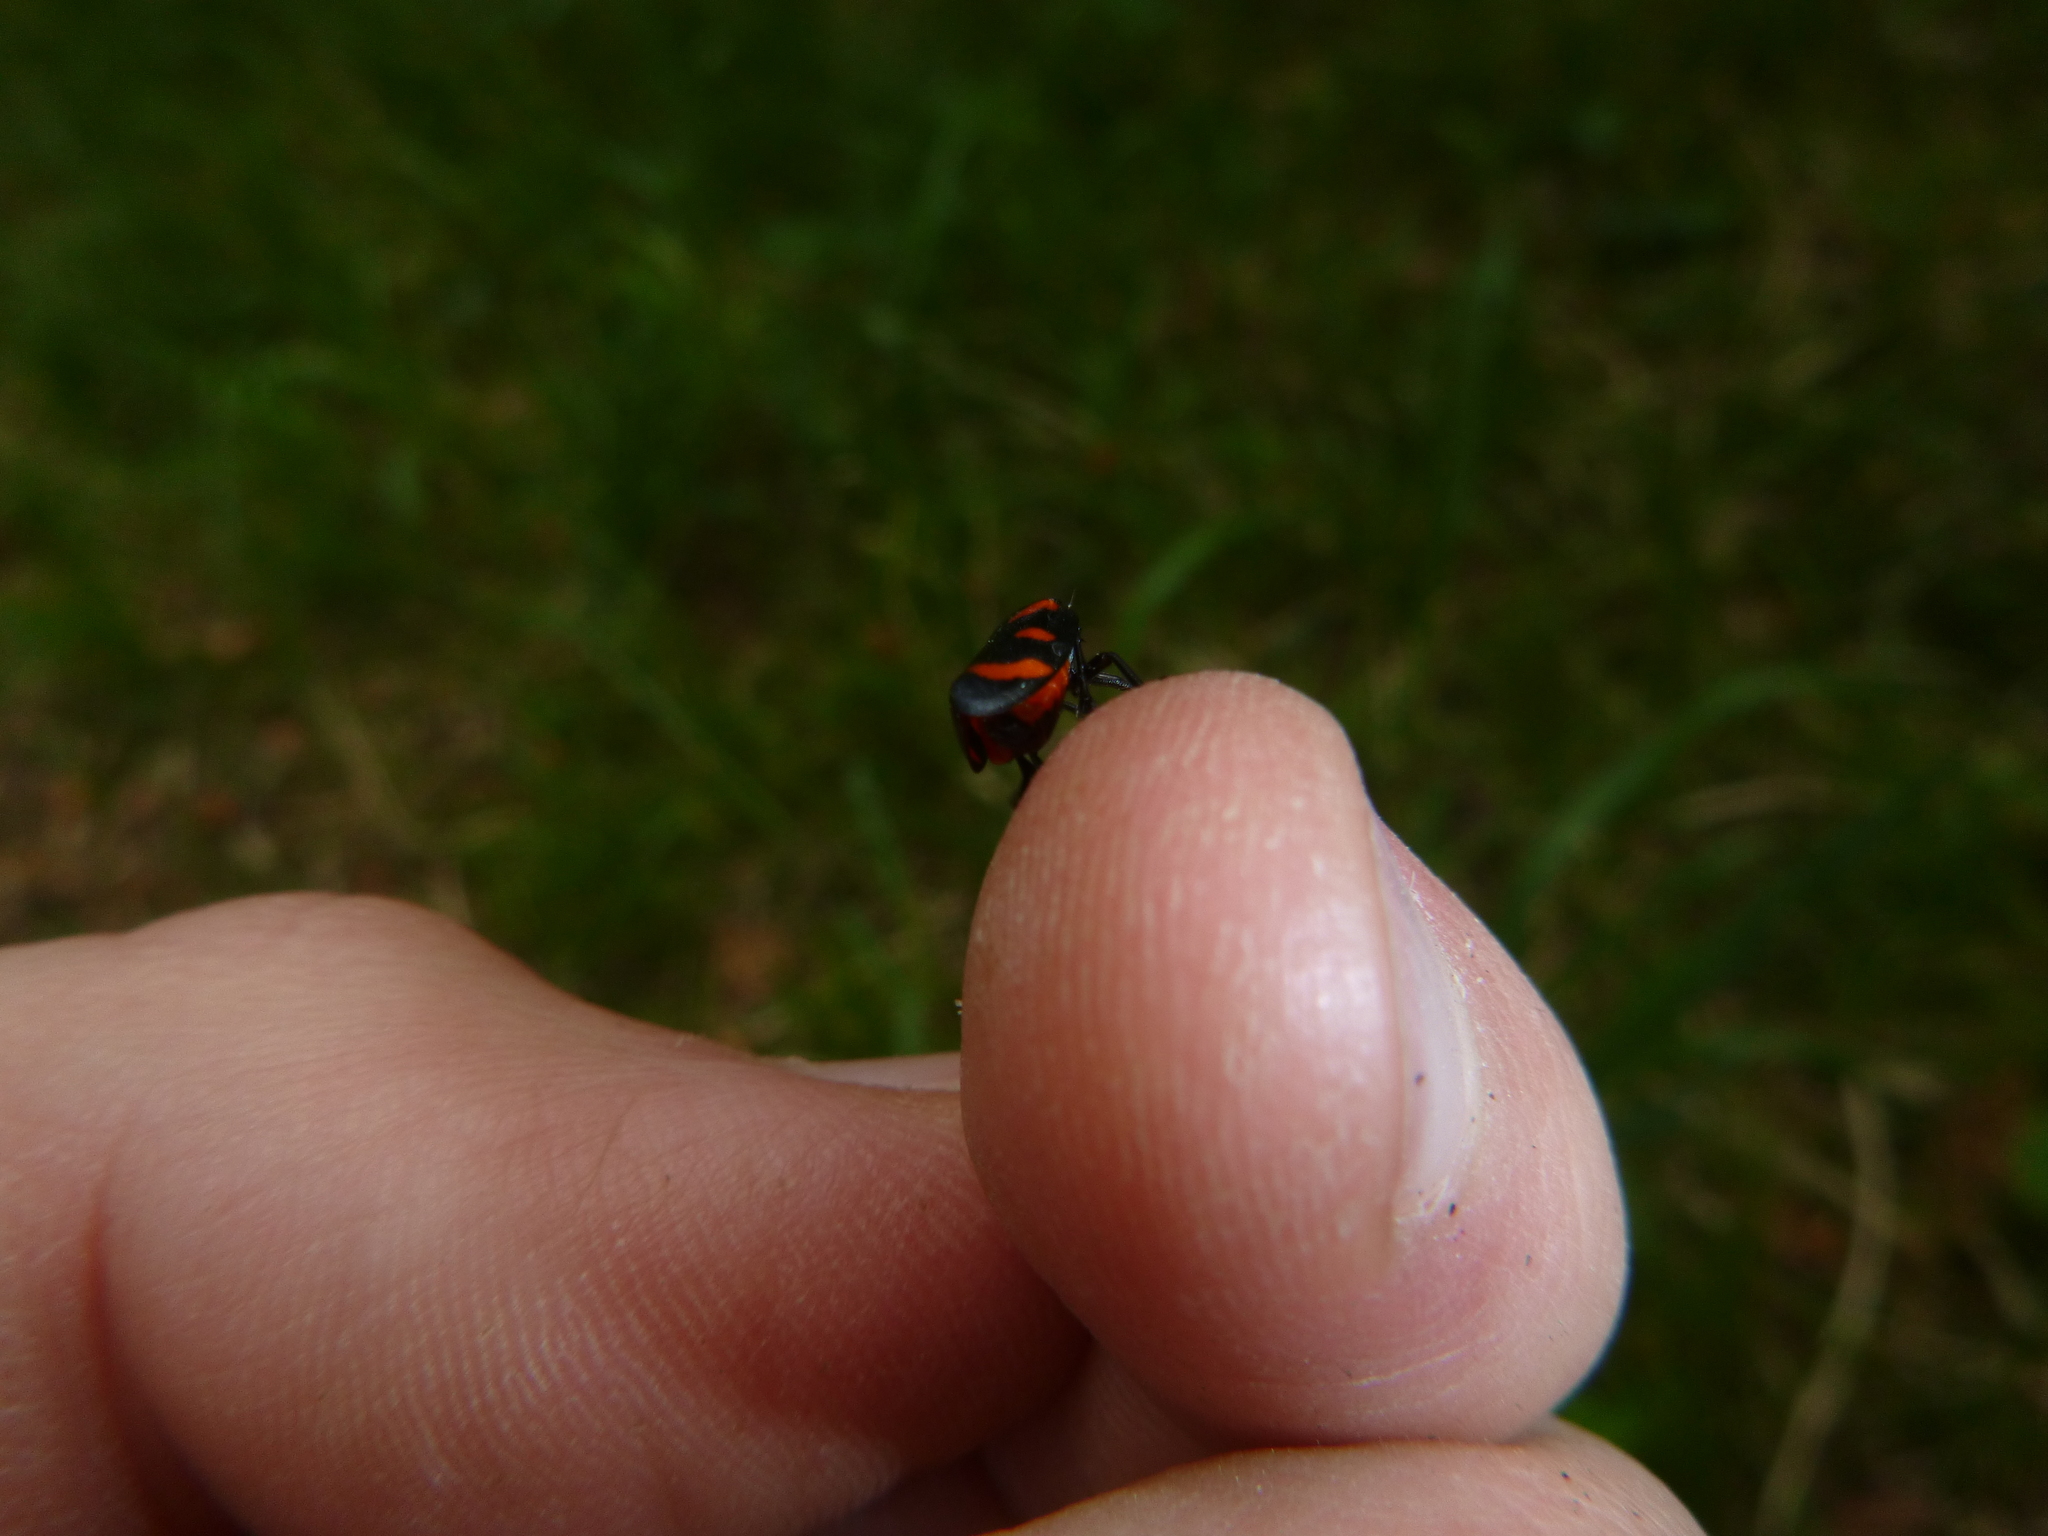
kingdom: Animalia
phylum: Arthropoda
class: Insecta
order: Hemiptera
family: Cercopidae
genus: Cercopis
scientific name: Cercopis arcuata
